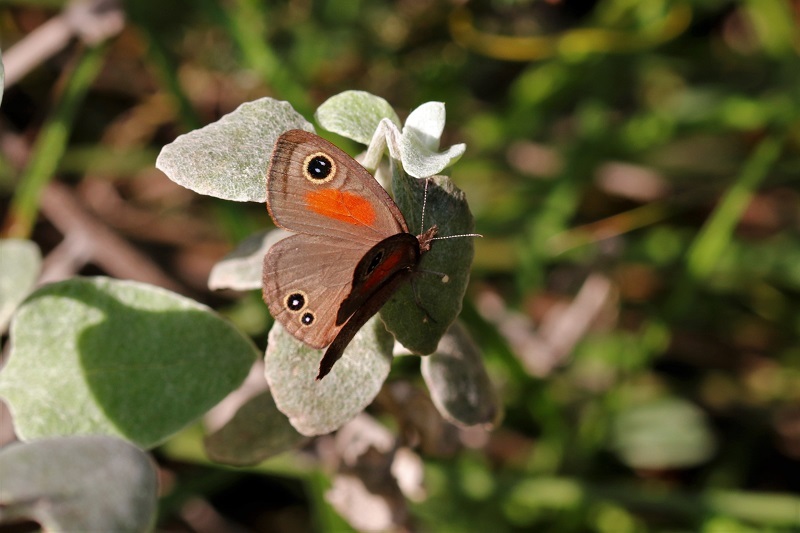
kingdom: Animalia
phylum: Arthropoda
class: Insecta
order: Lepidoptera
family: Nymphalidae
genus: Cassionympha
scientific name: Cassionympha cassius
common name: Rainforest brown
